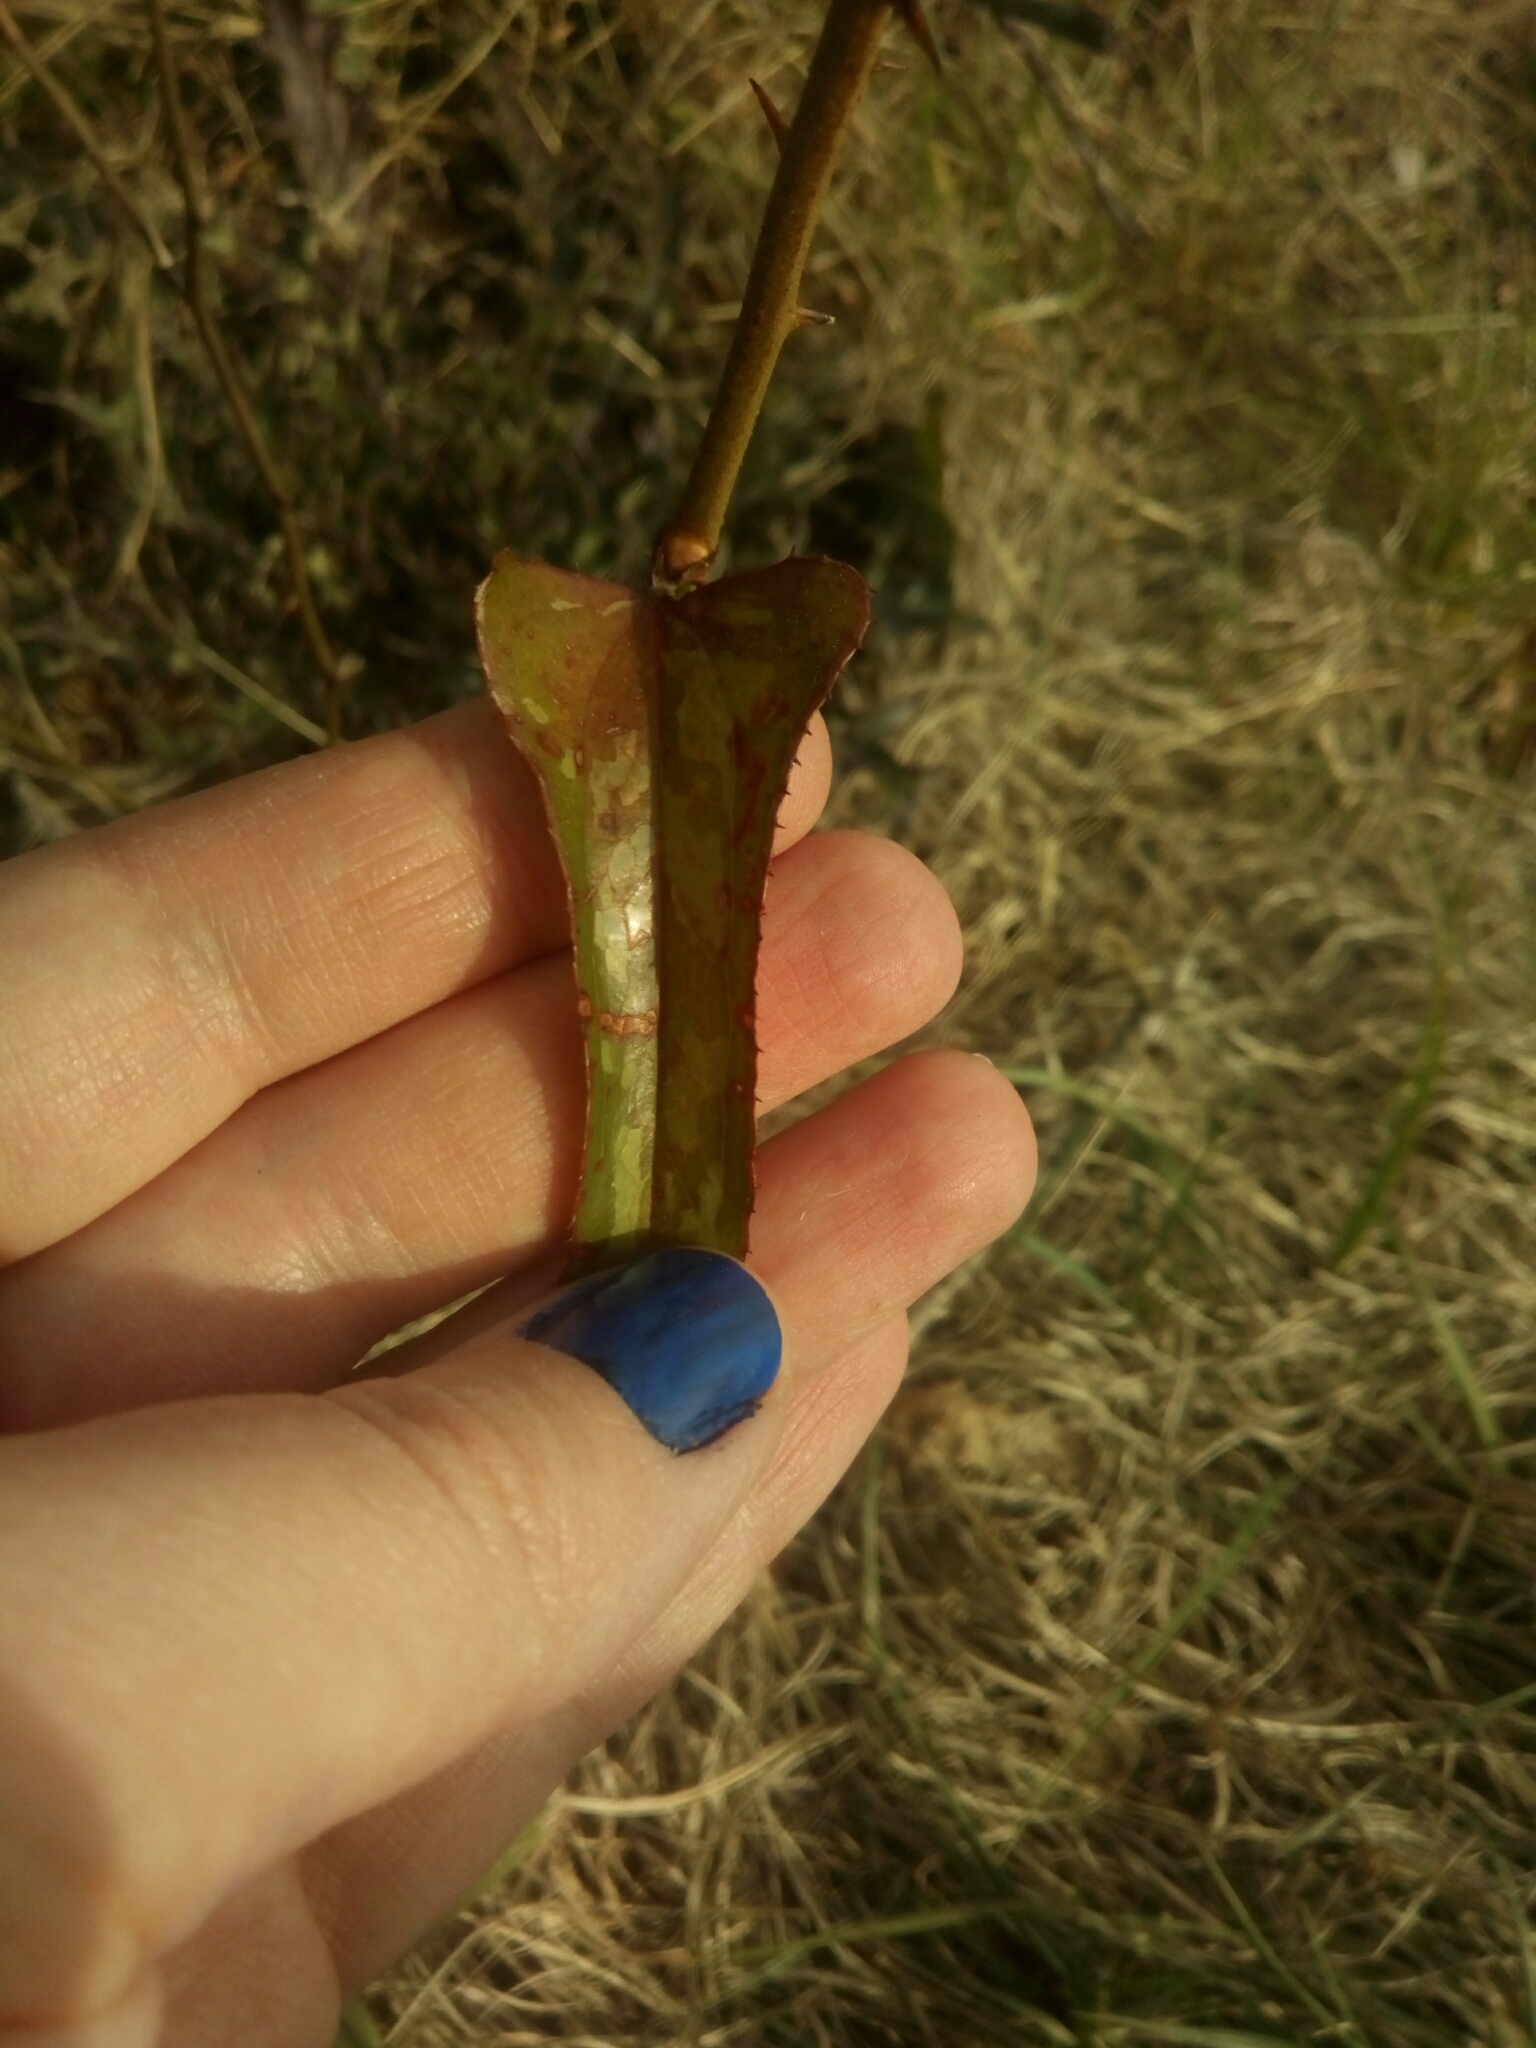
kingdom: Plantae
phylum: Tracheophyta
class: Liliopsida
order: Liliales
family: Smilacaceae
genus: Smilax
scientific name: Smilax bona-nox
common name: Catbrier
